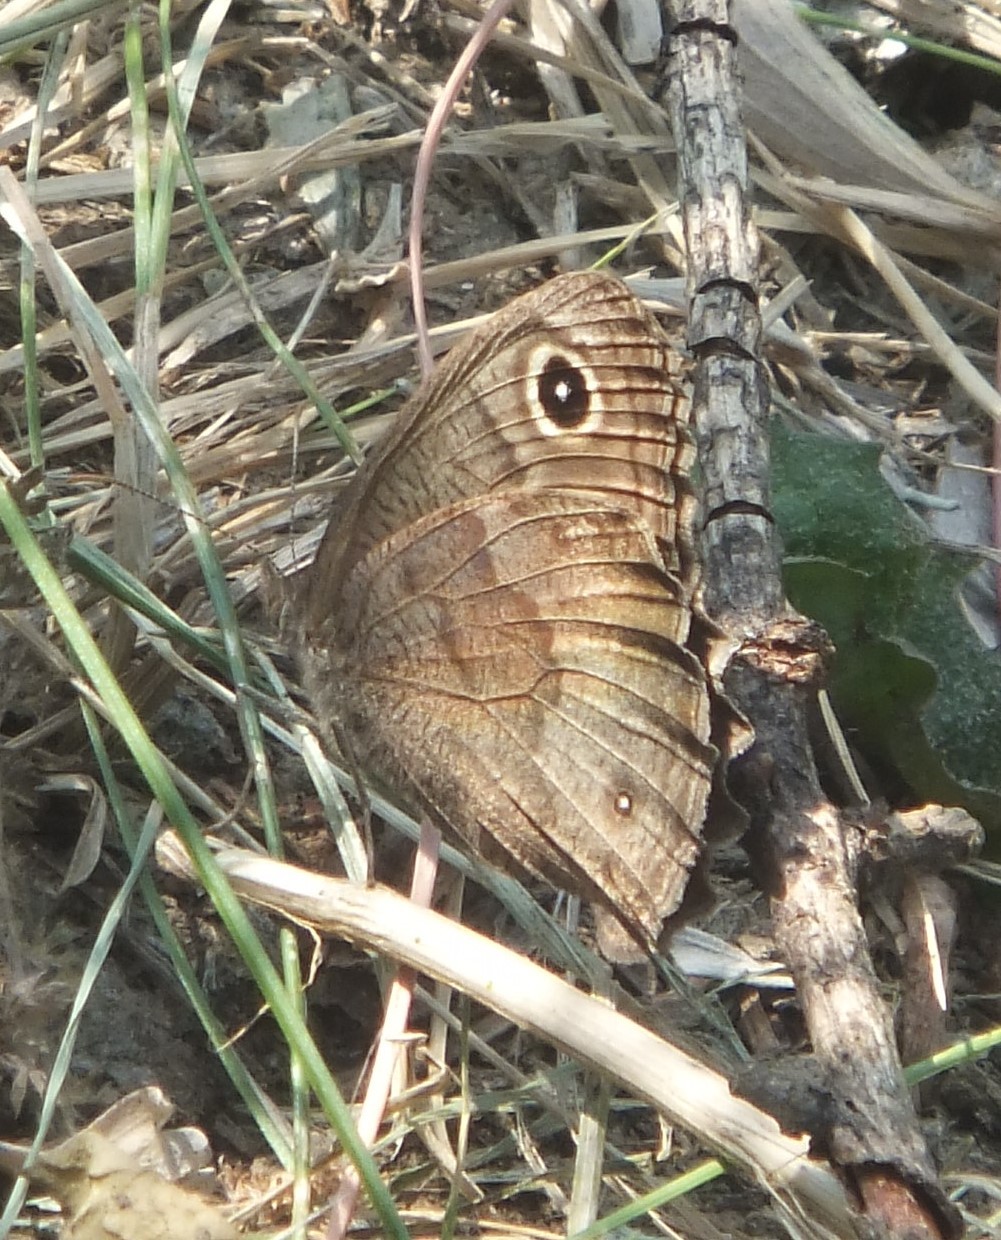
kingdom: Animalia
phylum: Arthropoda
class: Insecta
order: Lepidoptera
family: Nymphalidae
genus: Cercyonis
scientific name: Cercyonis pegala
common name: Common wood-nymph
